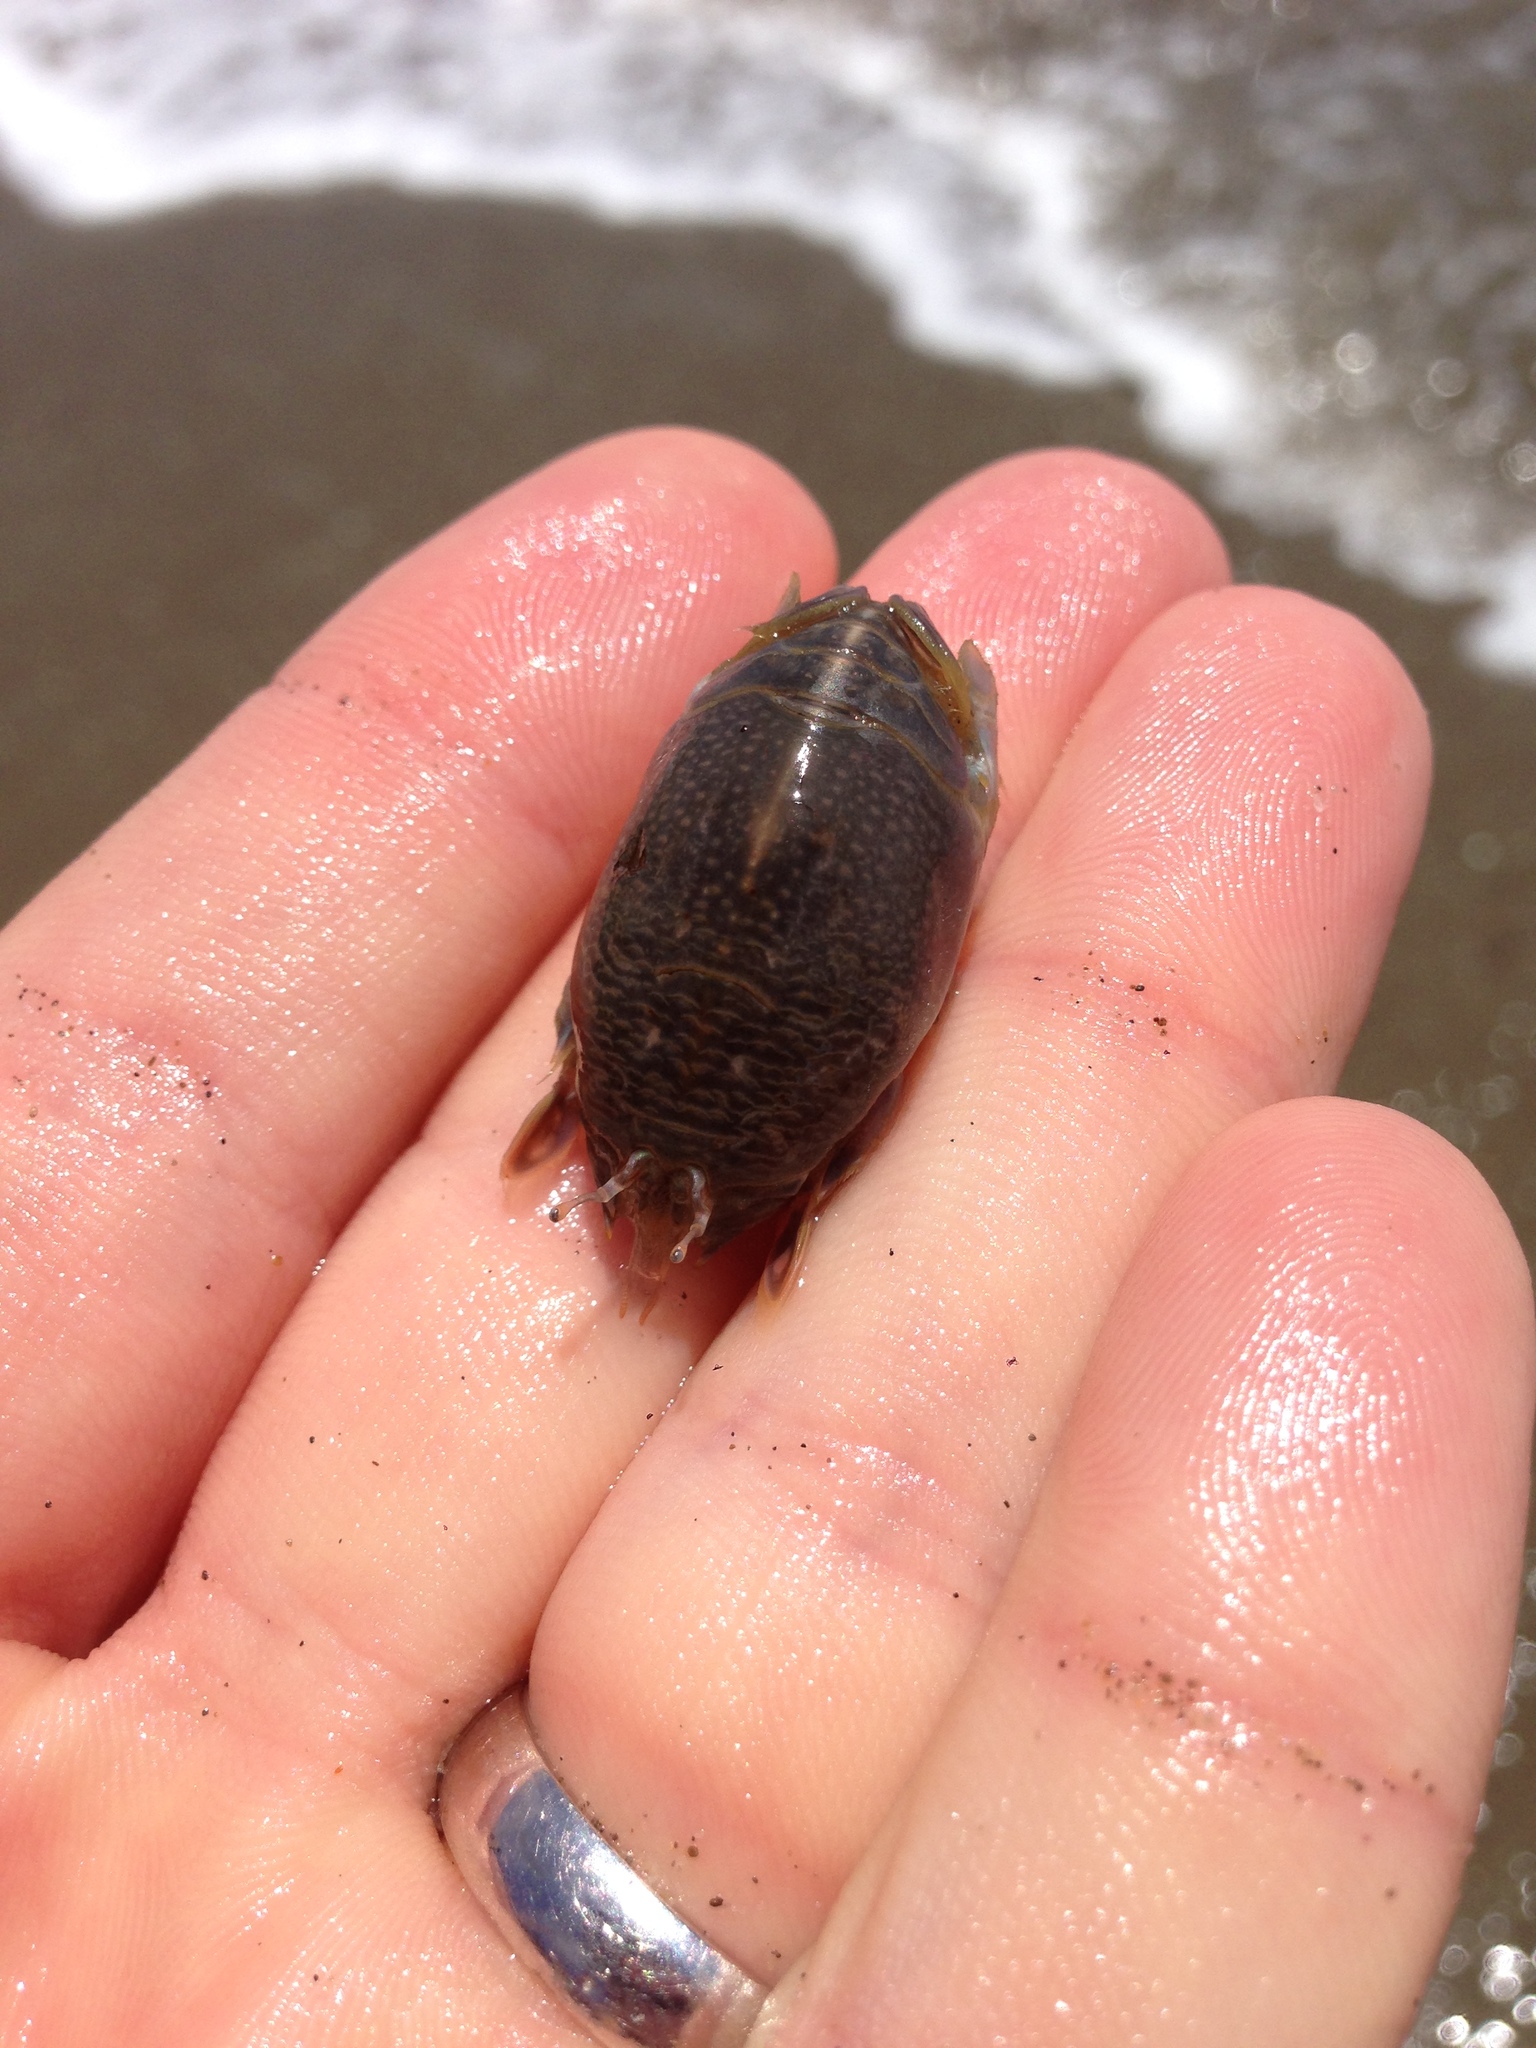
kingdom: Animalia
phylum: Arthropoda
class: Malacostraca
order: Decapoda
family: Hippidae
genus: Emerita
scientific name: Emerita analoga
